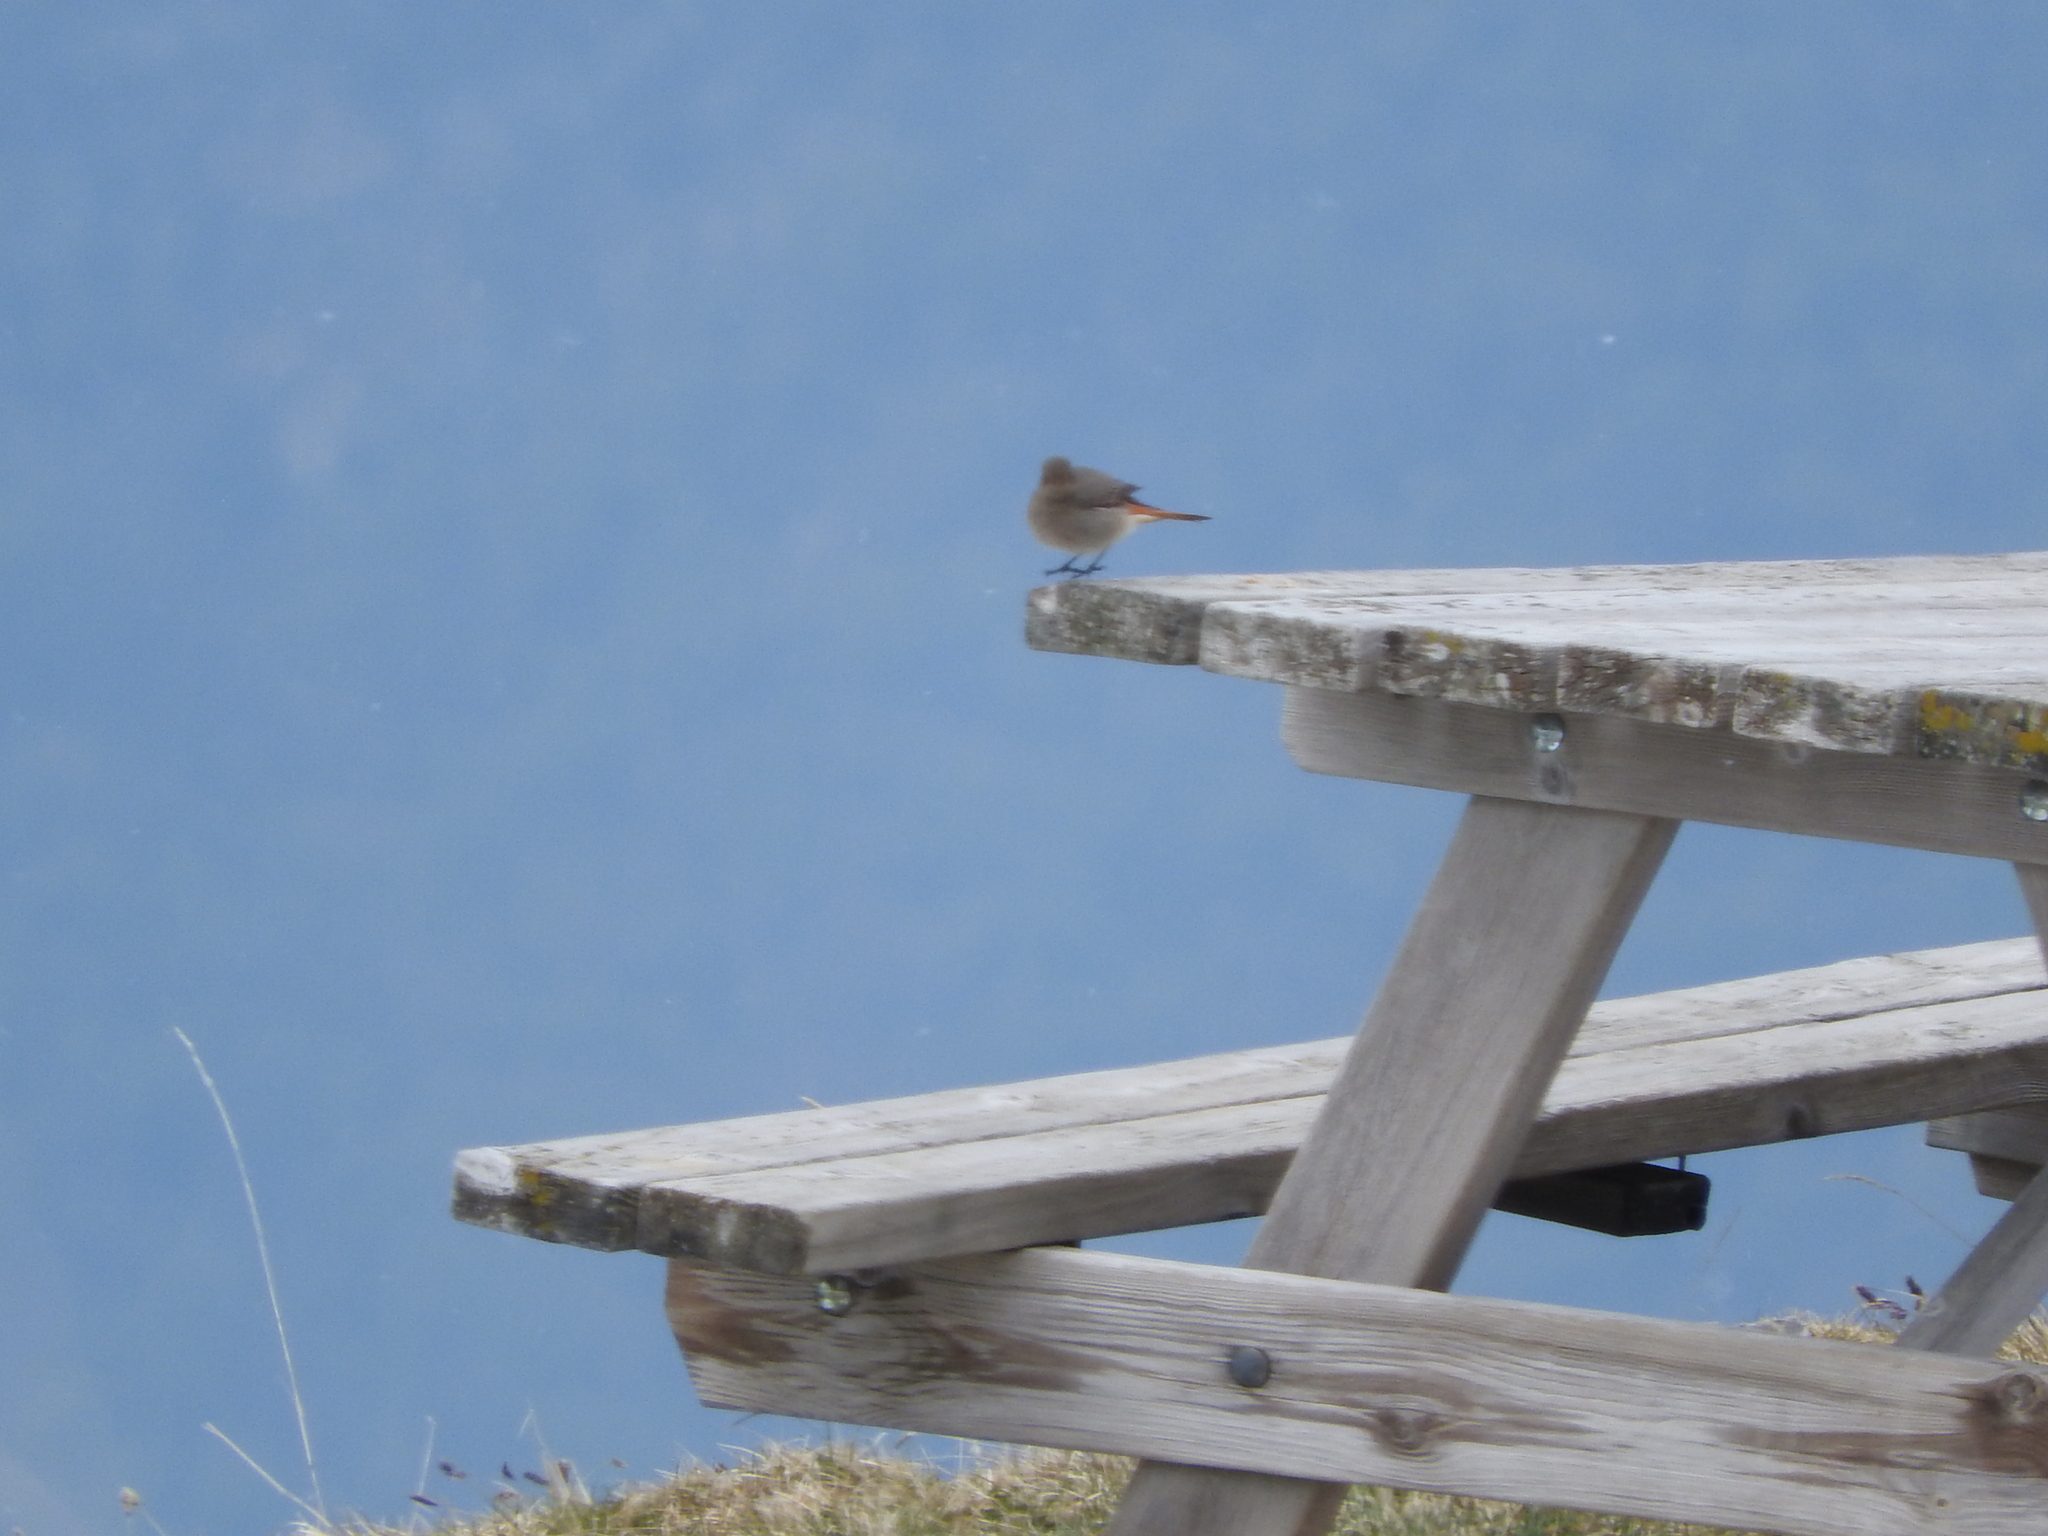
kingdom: Animalia
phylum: Chordata
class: Aves
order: Passeriformes
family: Muscicapidae
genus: Phoenicurus
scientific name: Phoenicurus ochruros
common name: Black redstart
